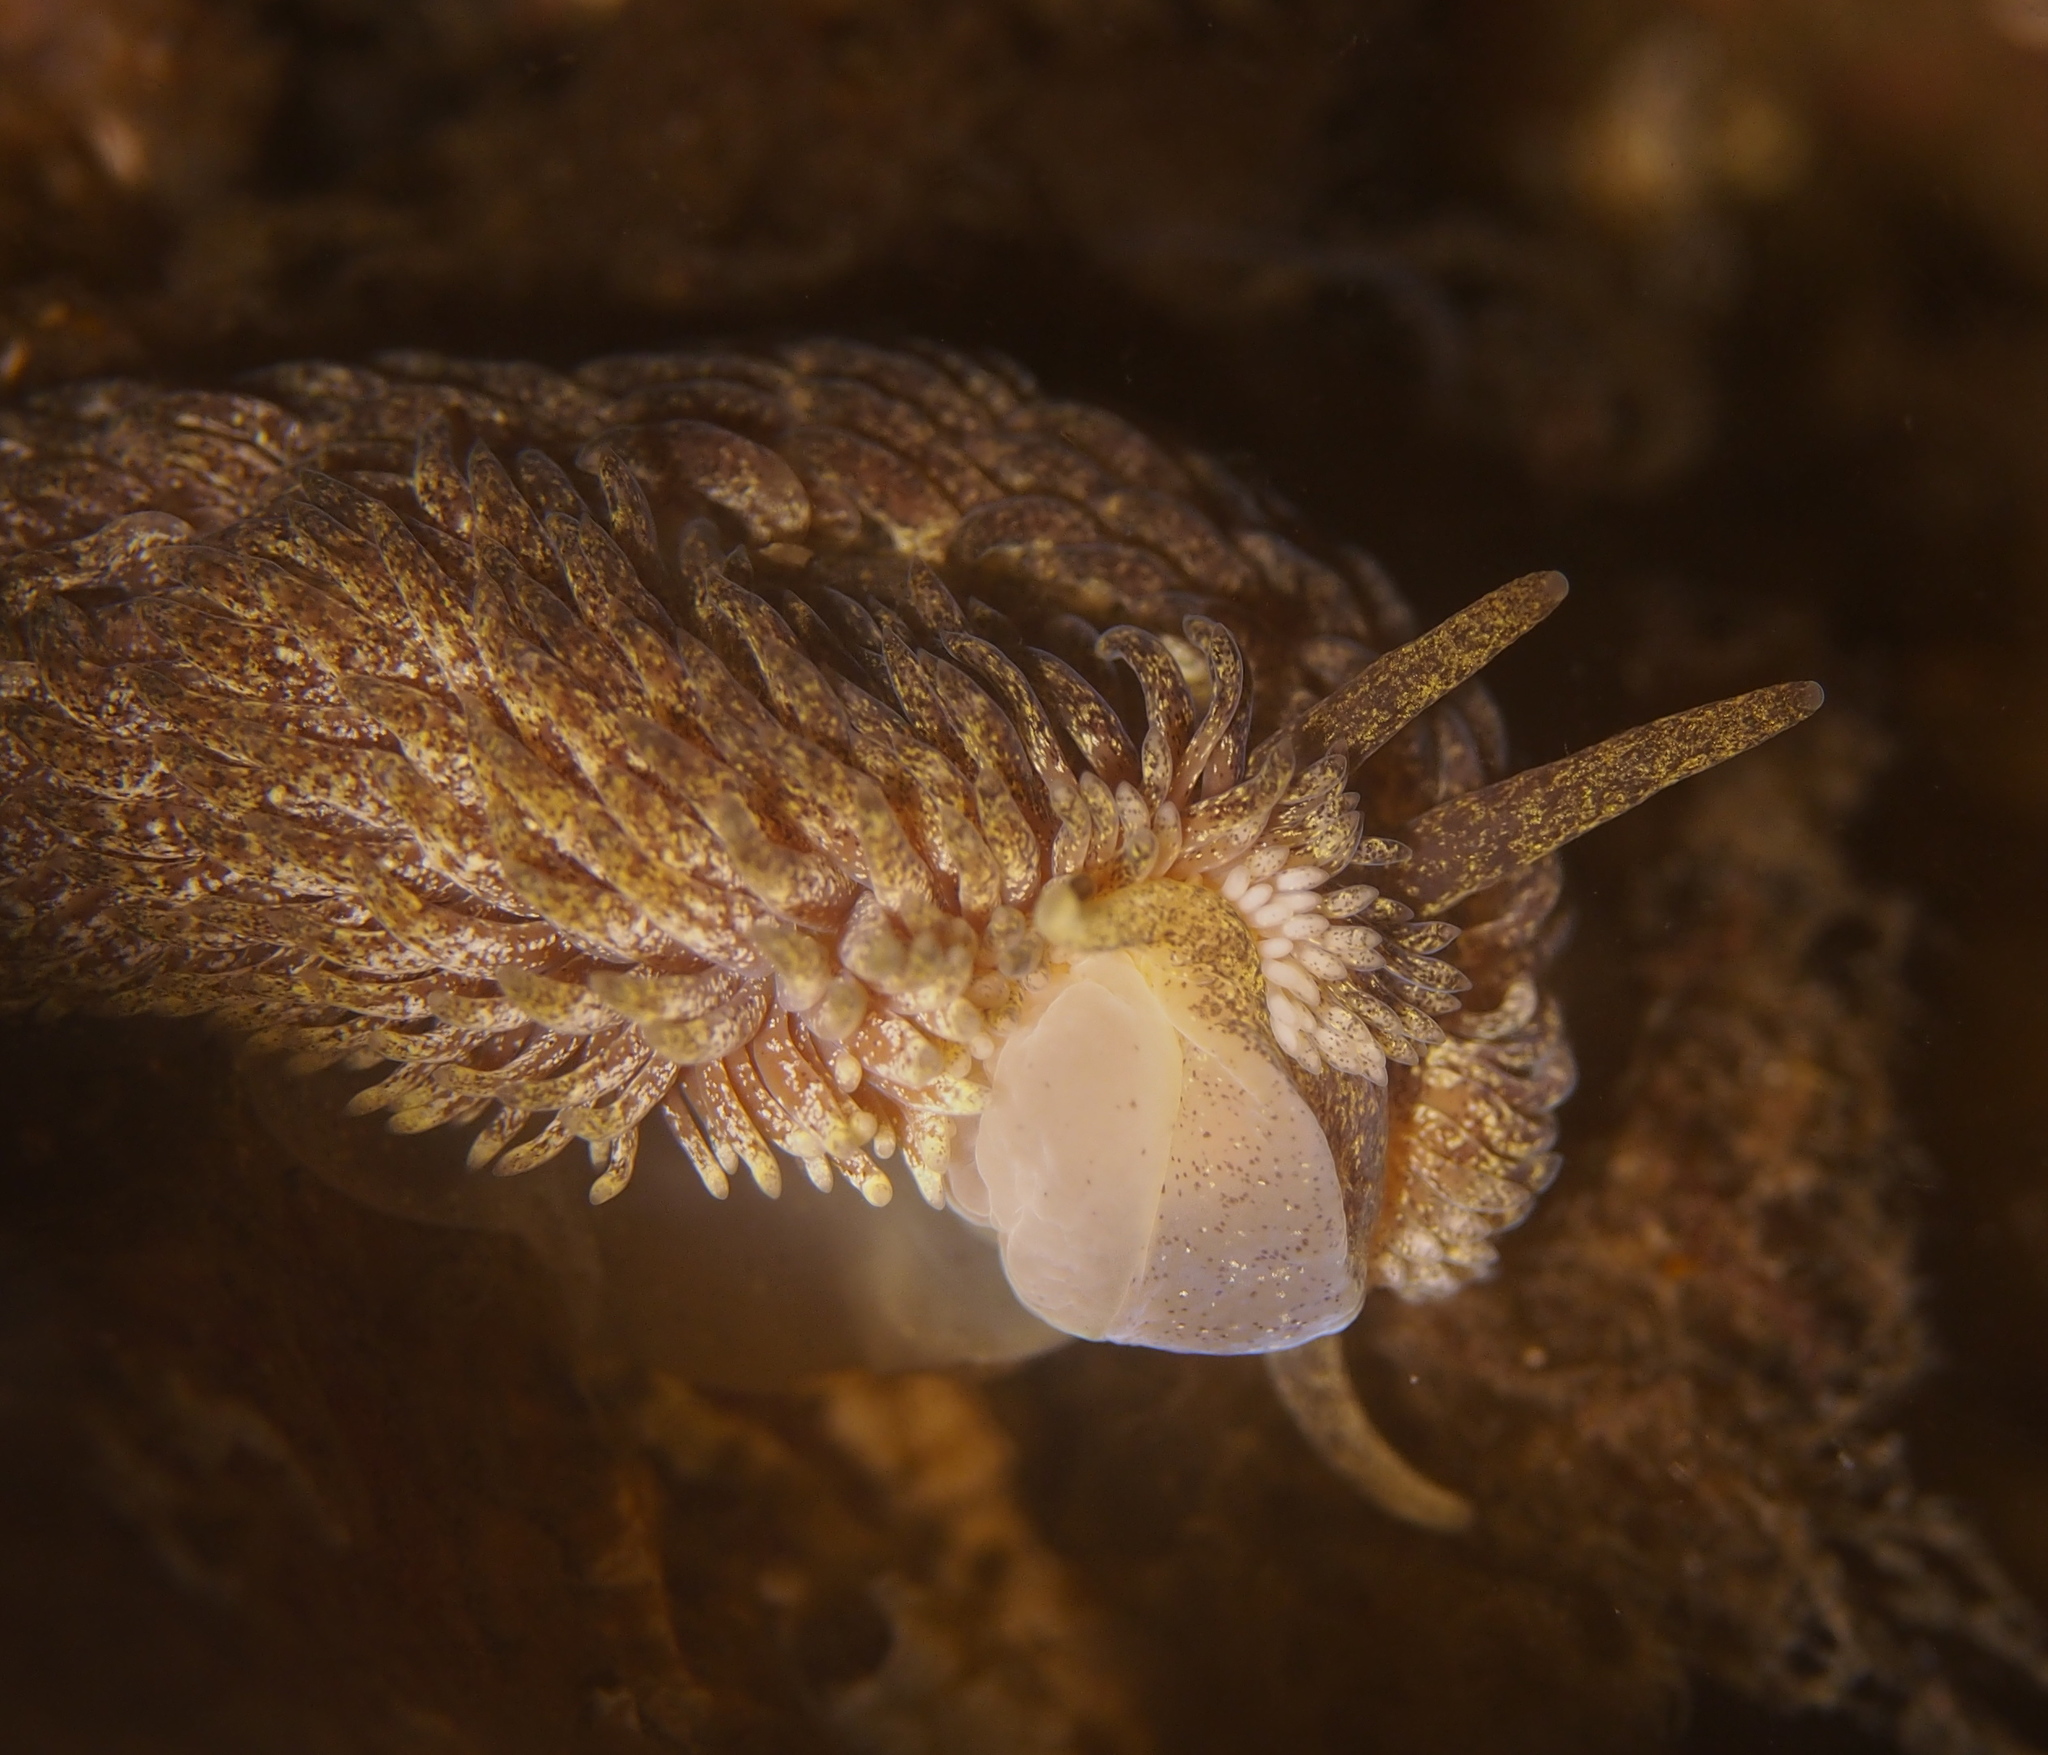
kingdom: Animalia
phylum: Mollusca
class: Gastropoda
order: Nudibranchia
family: Aeolidiidae
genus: Aeolidia
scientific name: Aeolidia papillosa
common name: Common grey sea slug
